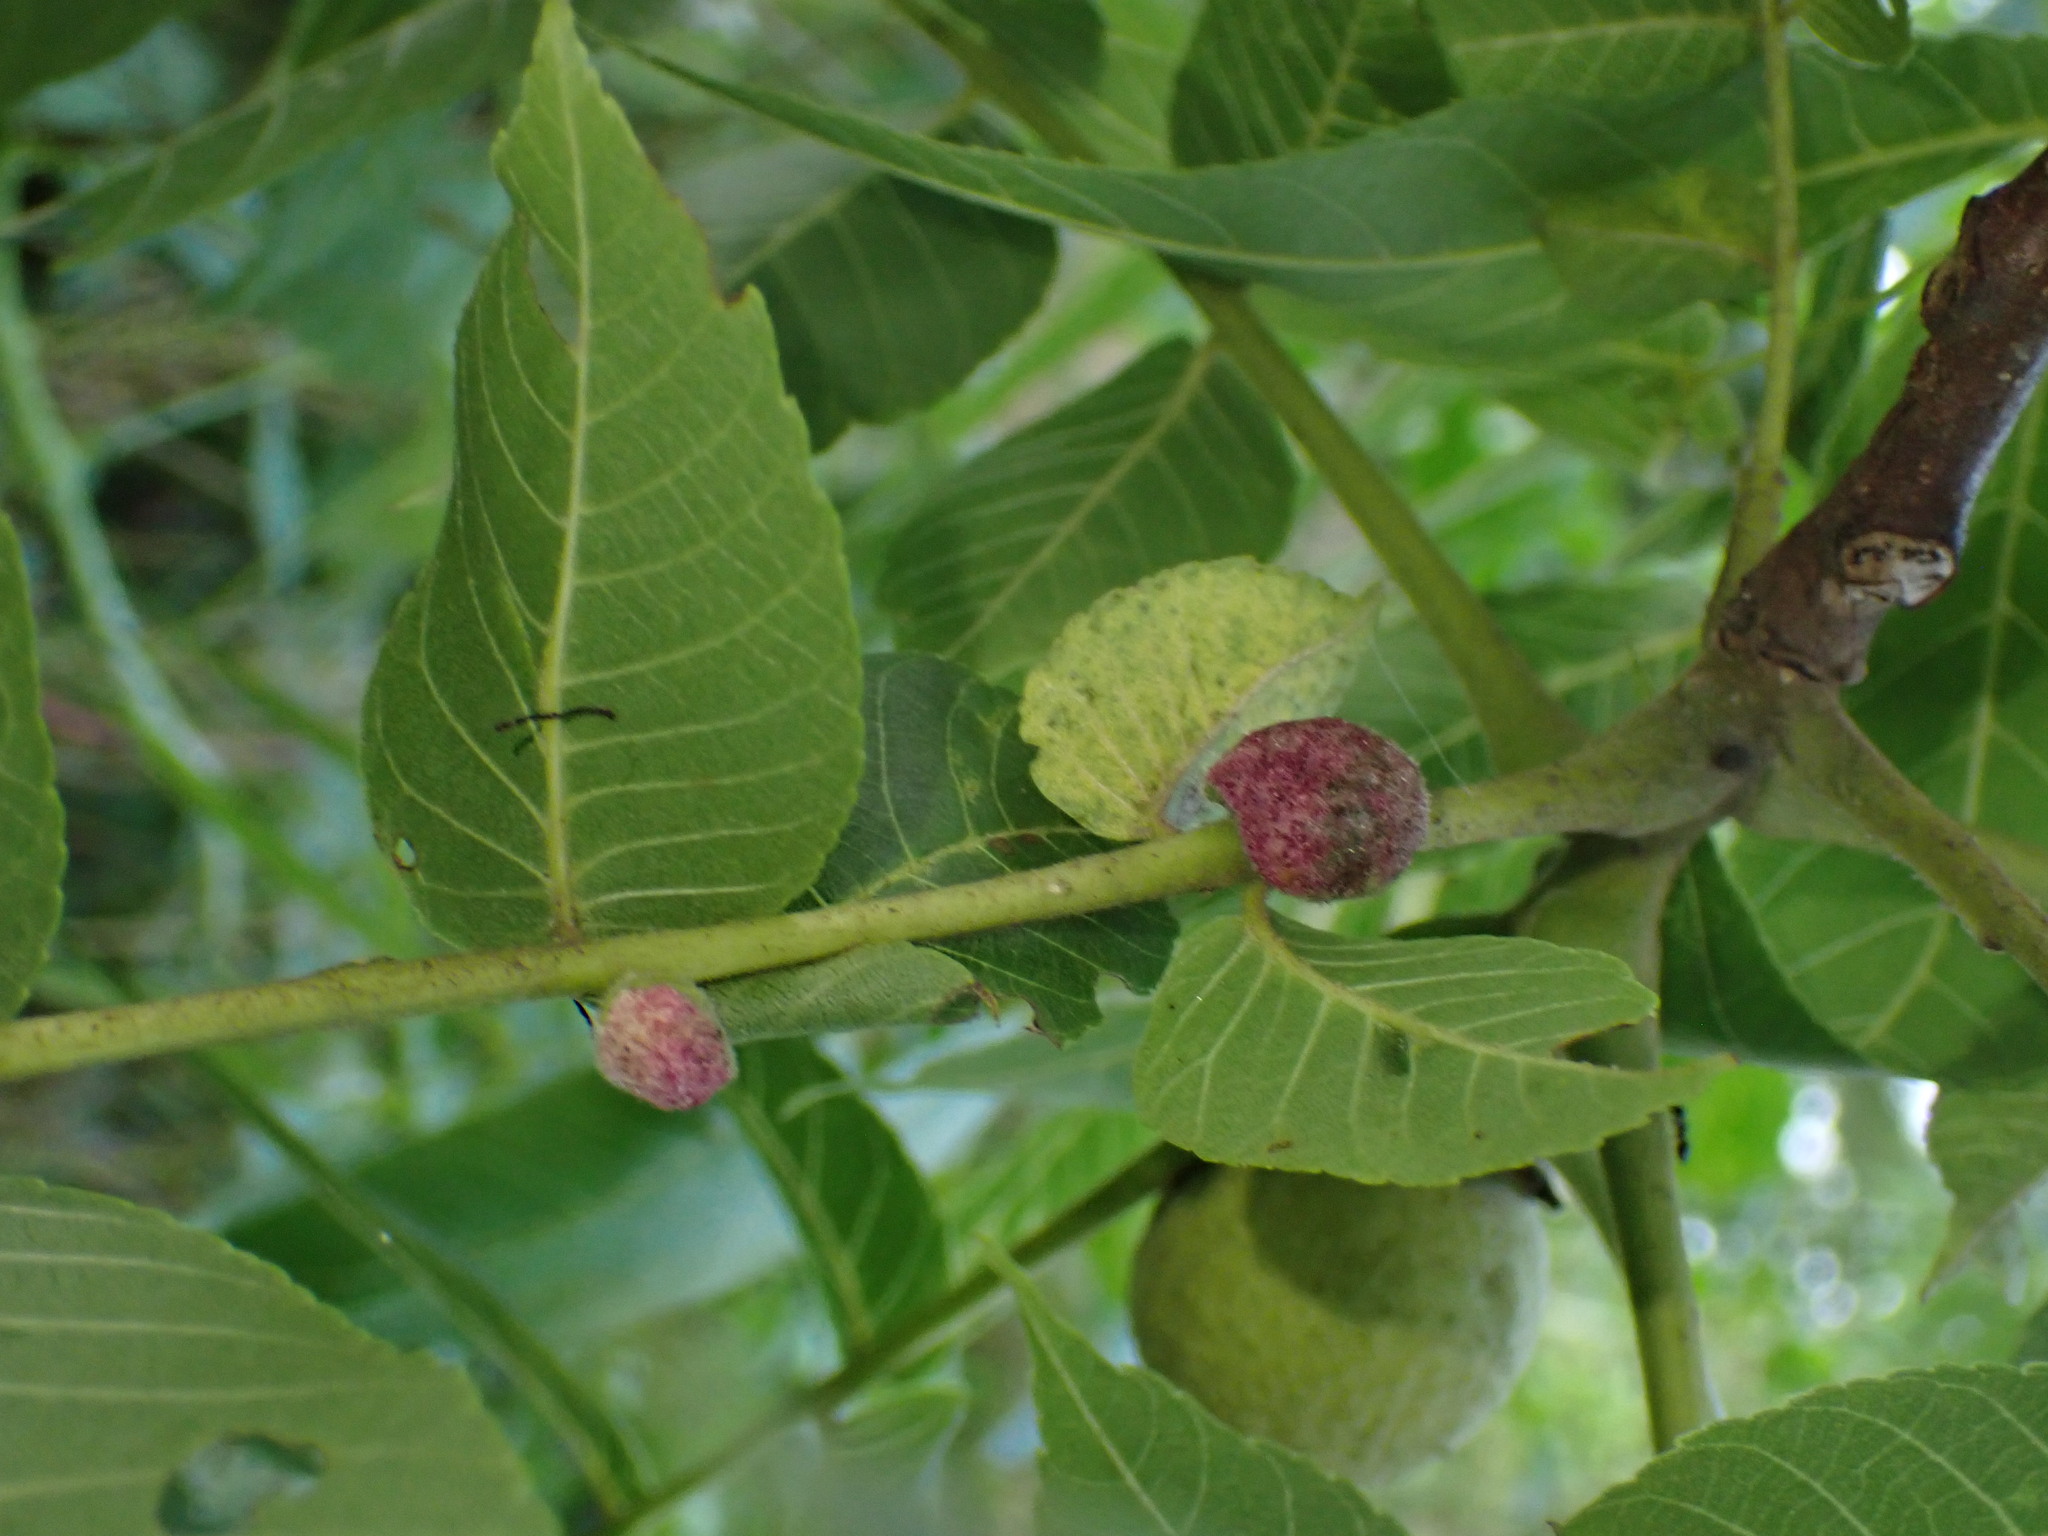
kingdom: Animalia
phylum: Arthropoda
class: Arachnida
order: Trombidiformes
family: Eriophyidae
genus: Aceria
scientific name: Aceria
